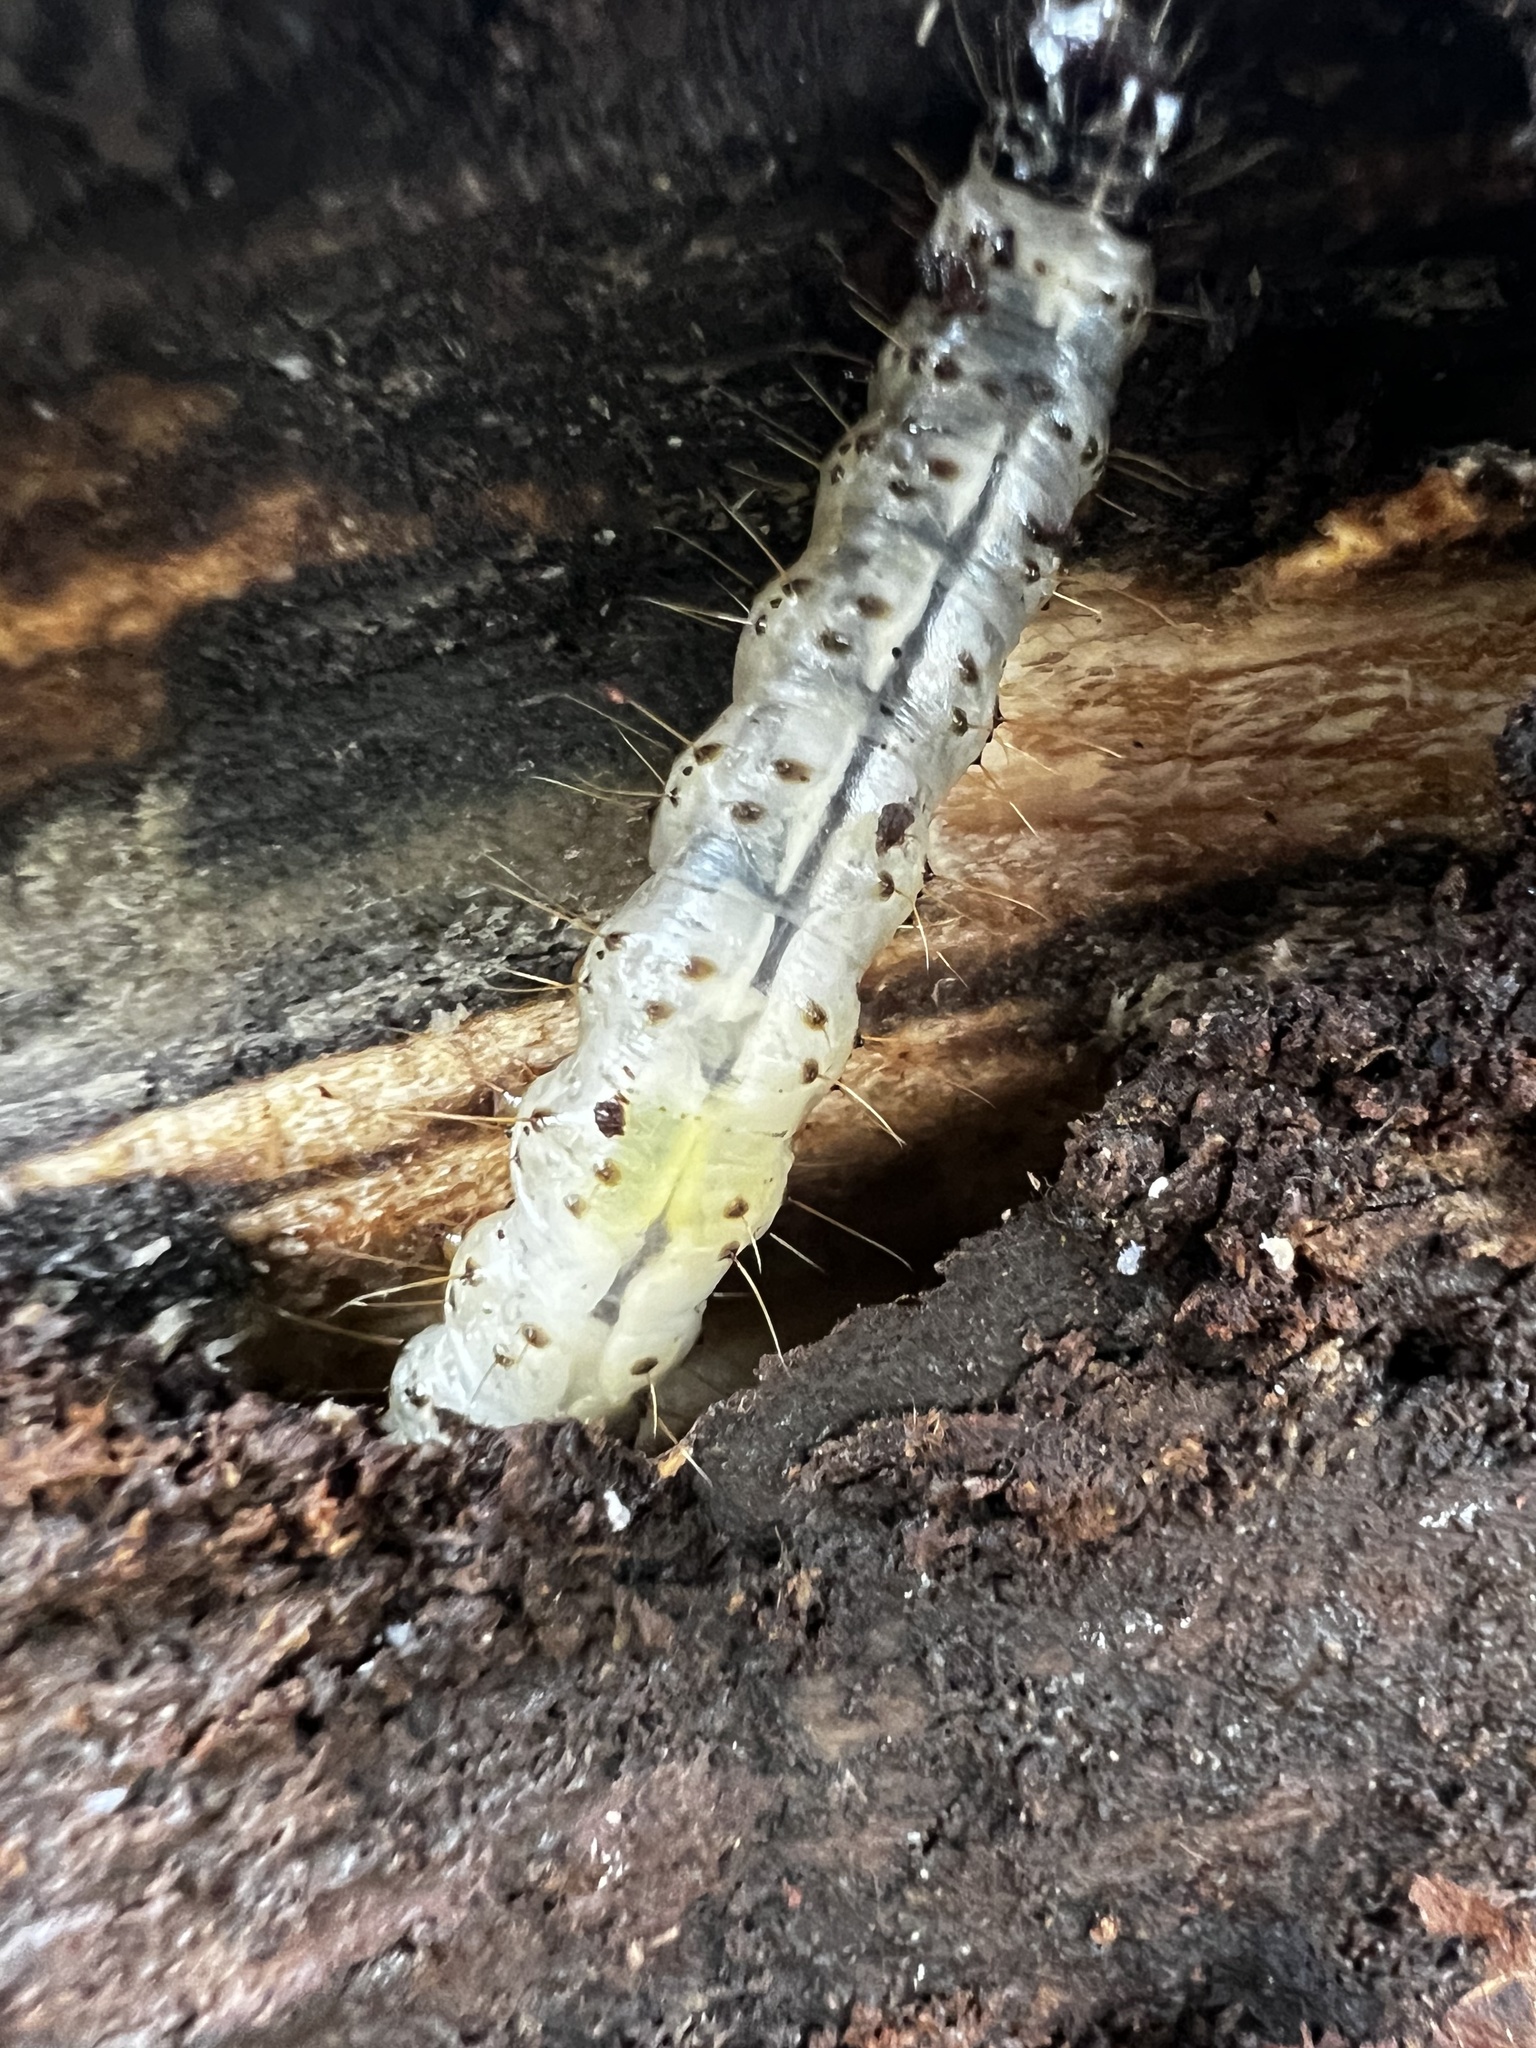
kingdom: Animalia
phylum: Arthropoda
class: Insecta
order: Lepidoptera
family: Erebidae
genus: Scolecocampa
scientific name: Scolecocampa liburna
